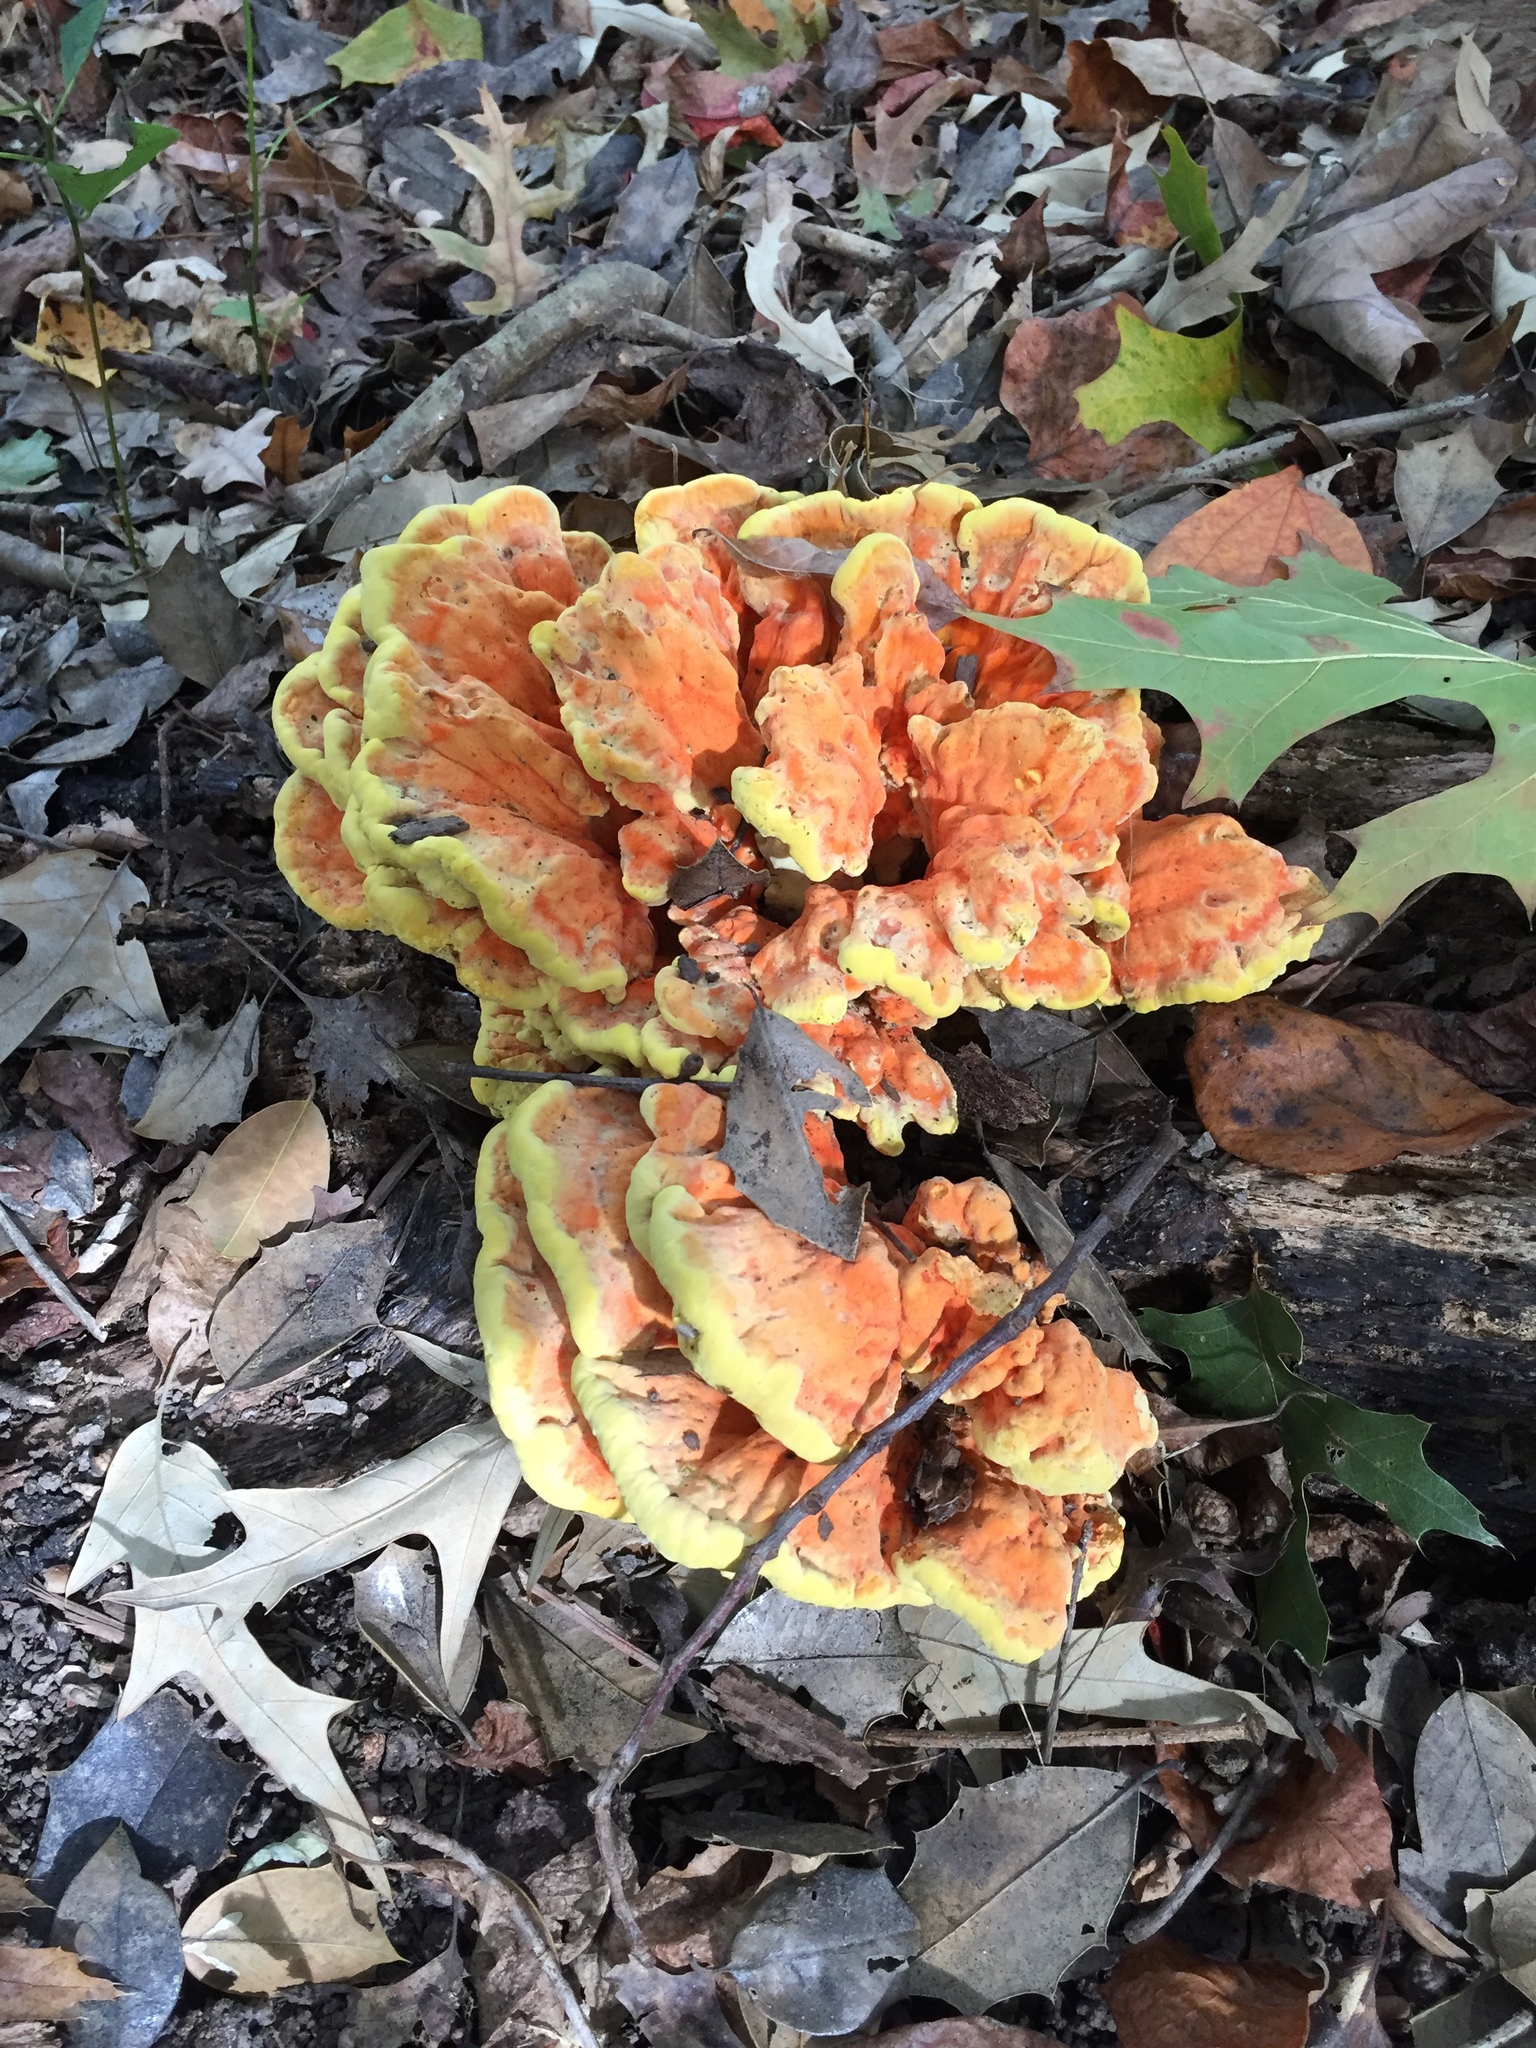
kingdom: Fungi
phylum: Basidiomycota
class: Agaricomycetes
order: Polyporales
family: Laetiporaceae
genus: Laetiporus
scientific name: Laetiporus sulphureus
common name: Chicken of the woods
